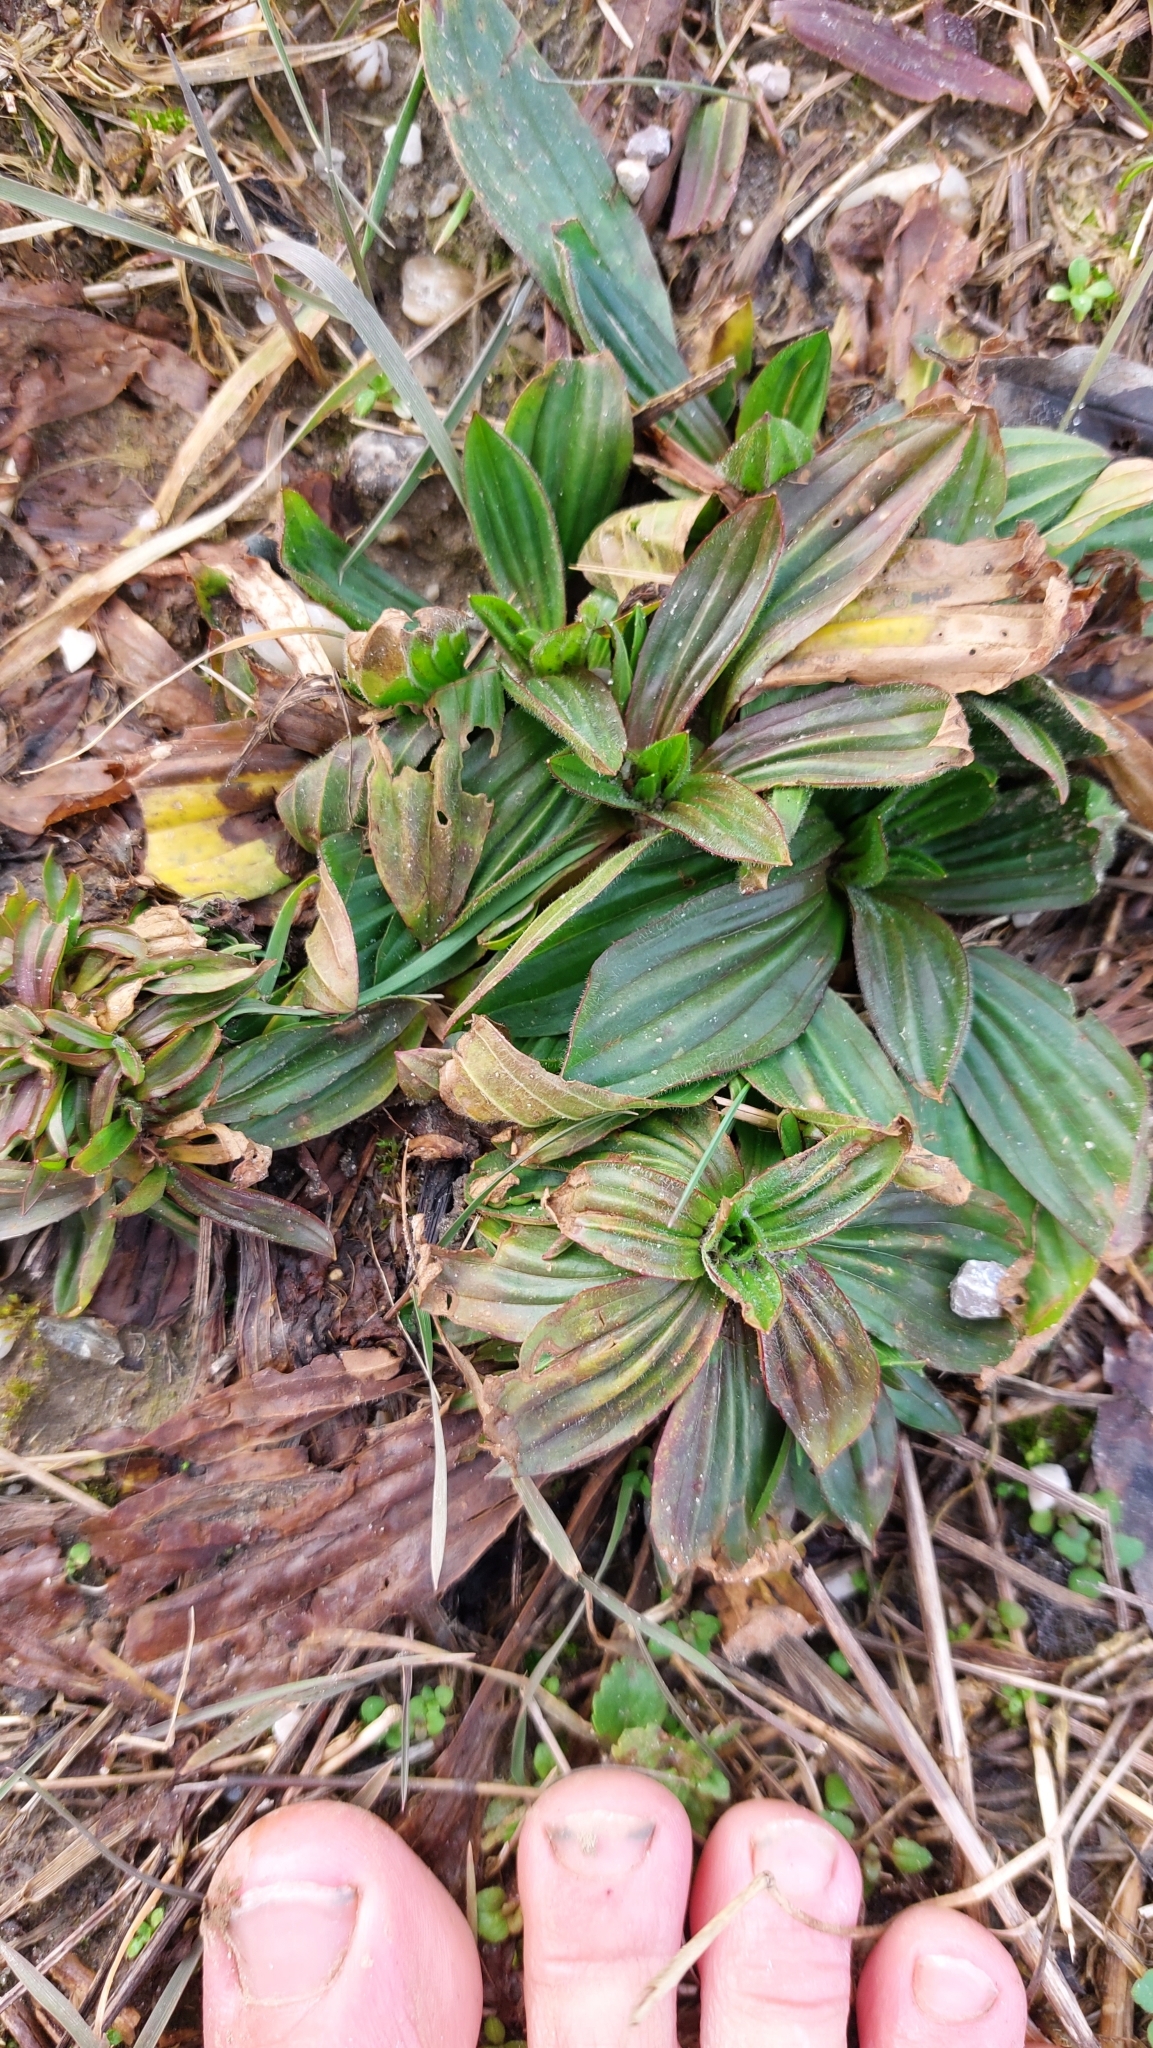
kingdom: Plantae
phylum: Tracheophyta
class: Magnoliopsida
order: Lamiales
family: Plantaginaceae
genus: Plantago
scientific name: Plantago lanceolata
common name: Ribwort plantain
